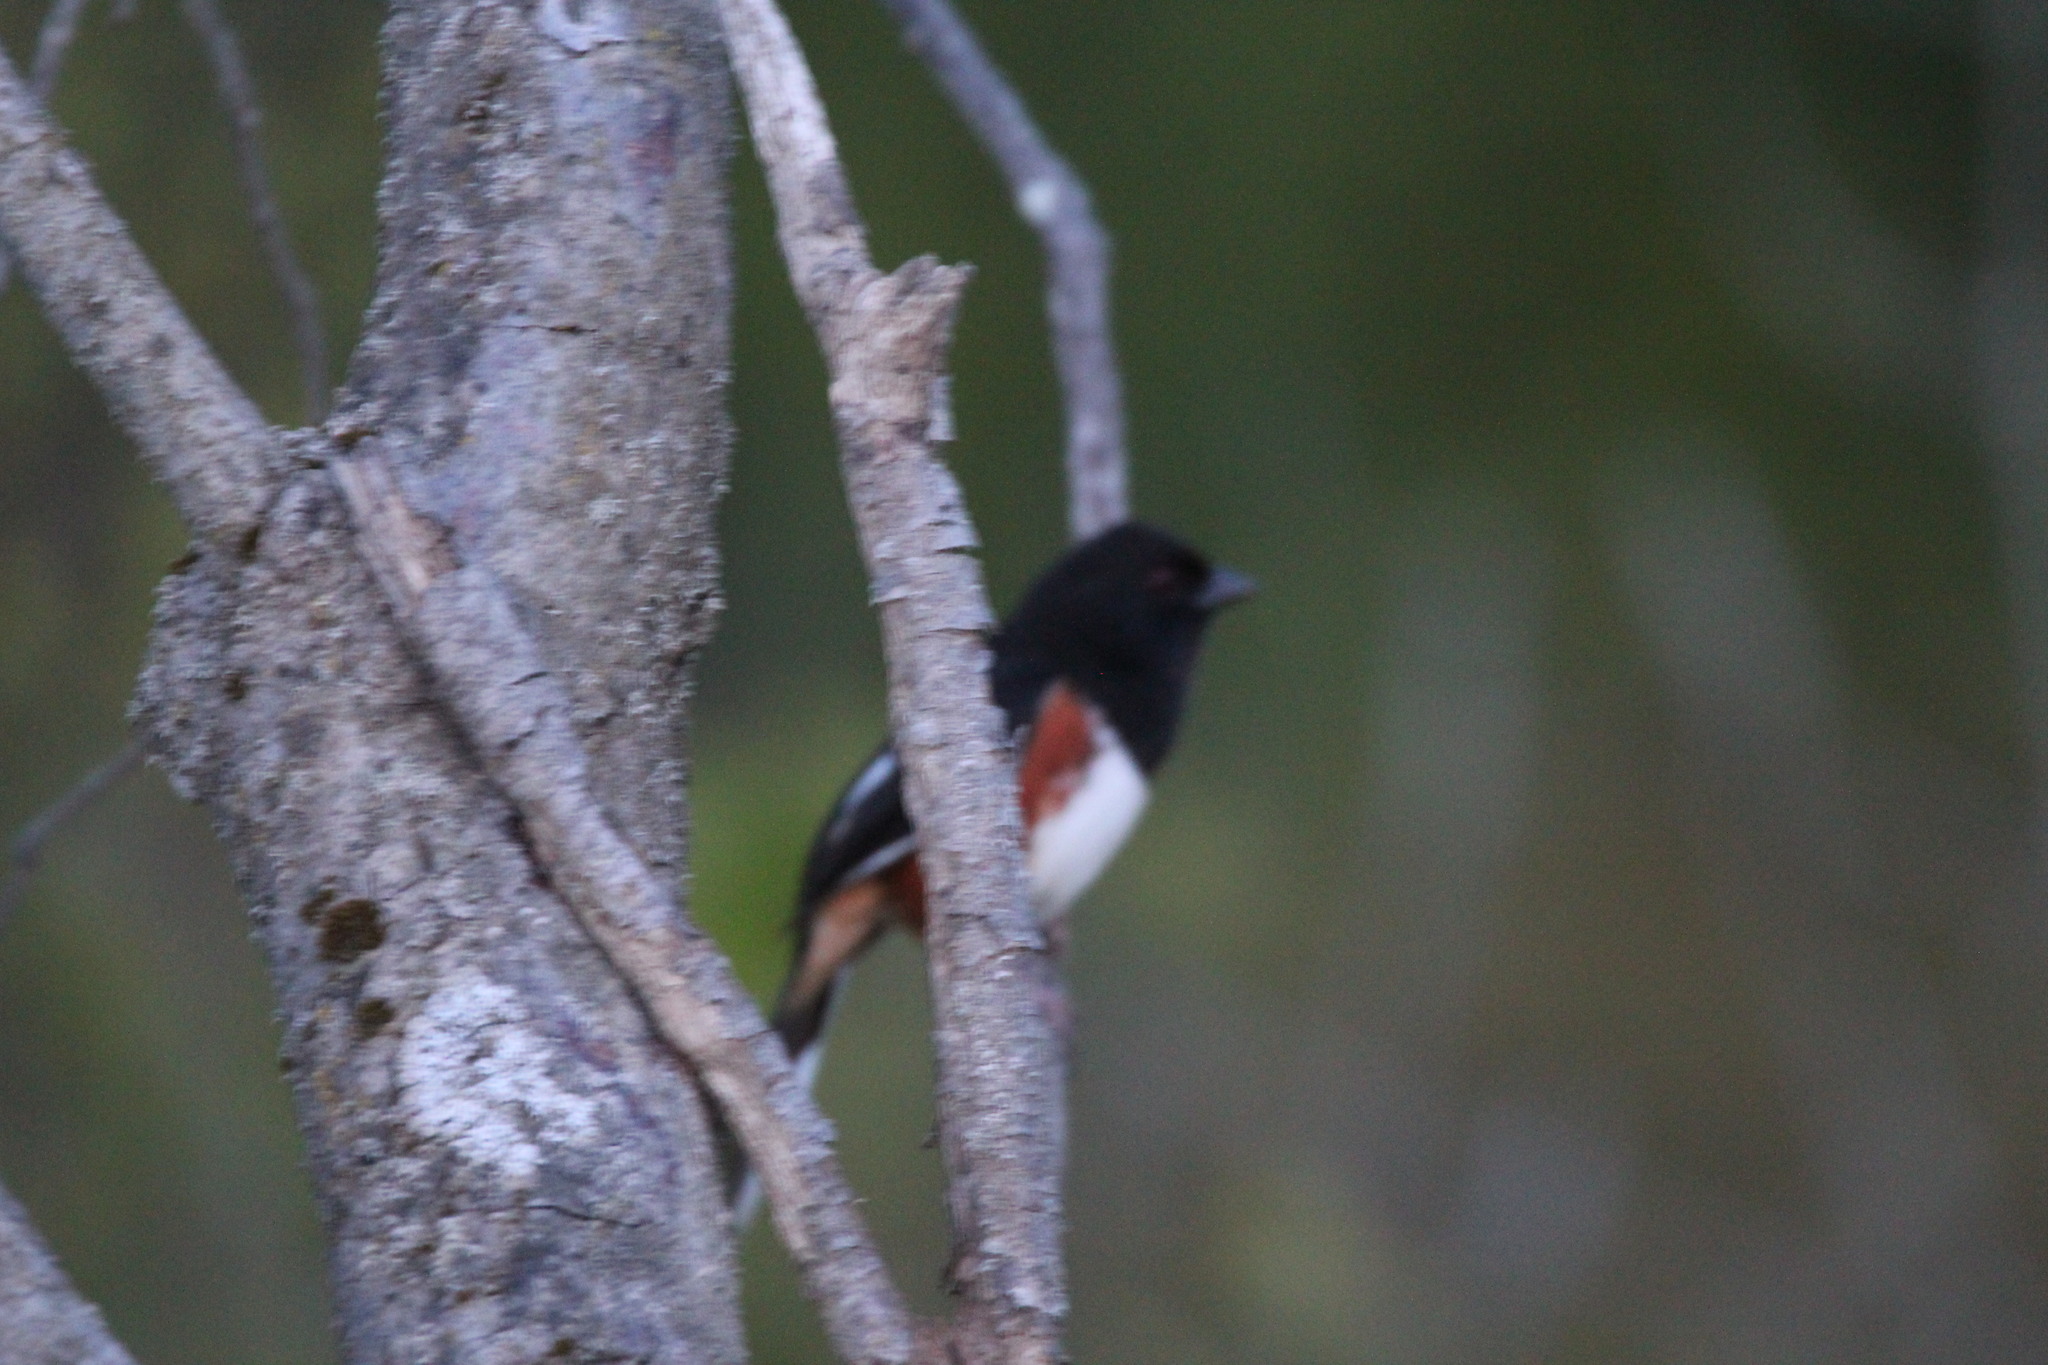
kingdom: Animalia
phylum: Chordata
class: Aves
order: Passeriformes
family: Passerellidae
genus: Pipilo
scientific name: Pipilo erythrophthalmus
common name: Eastern towhee
